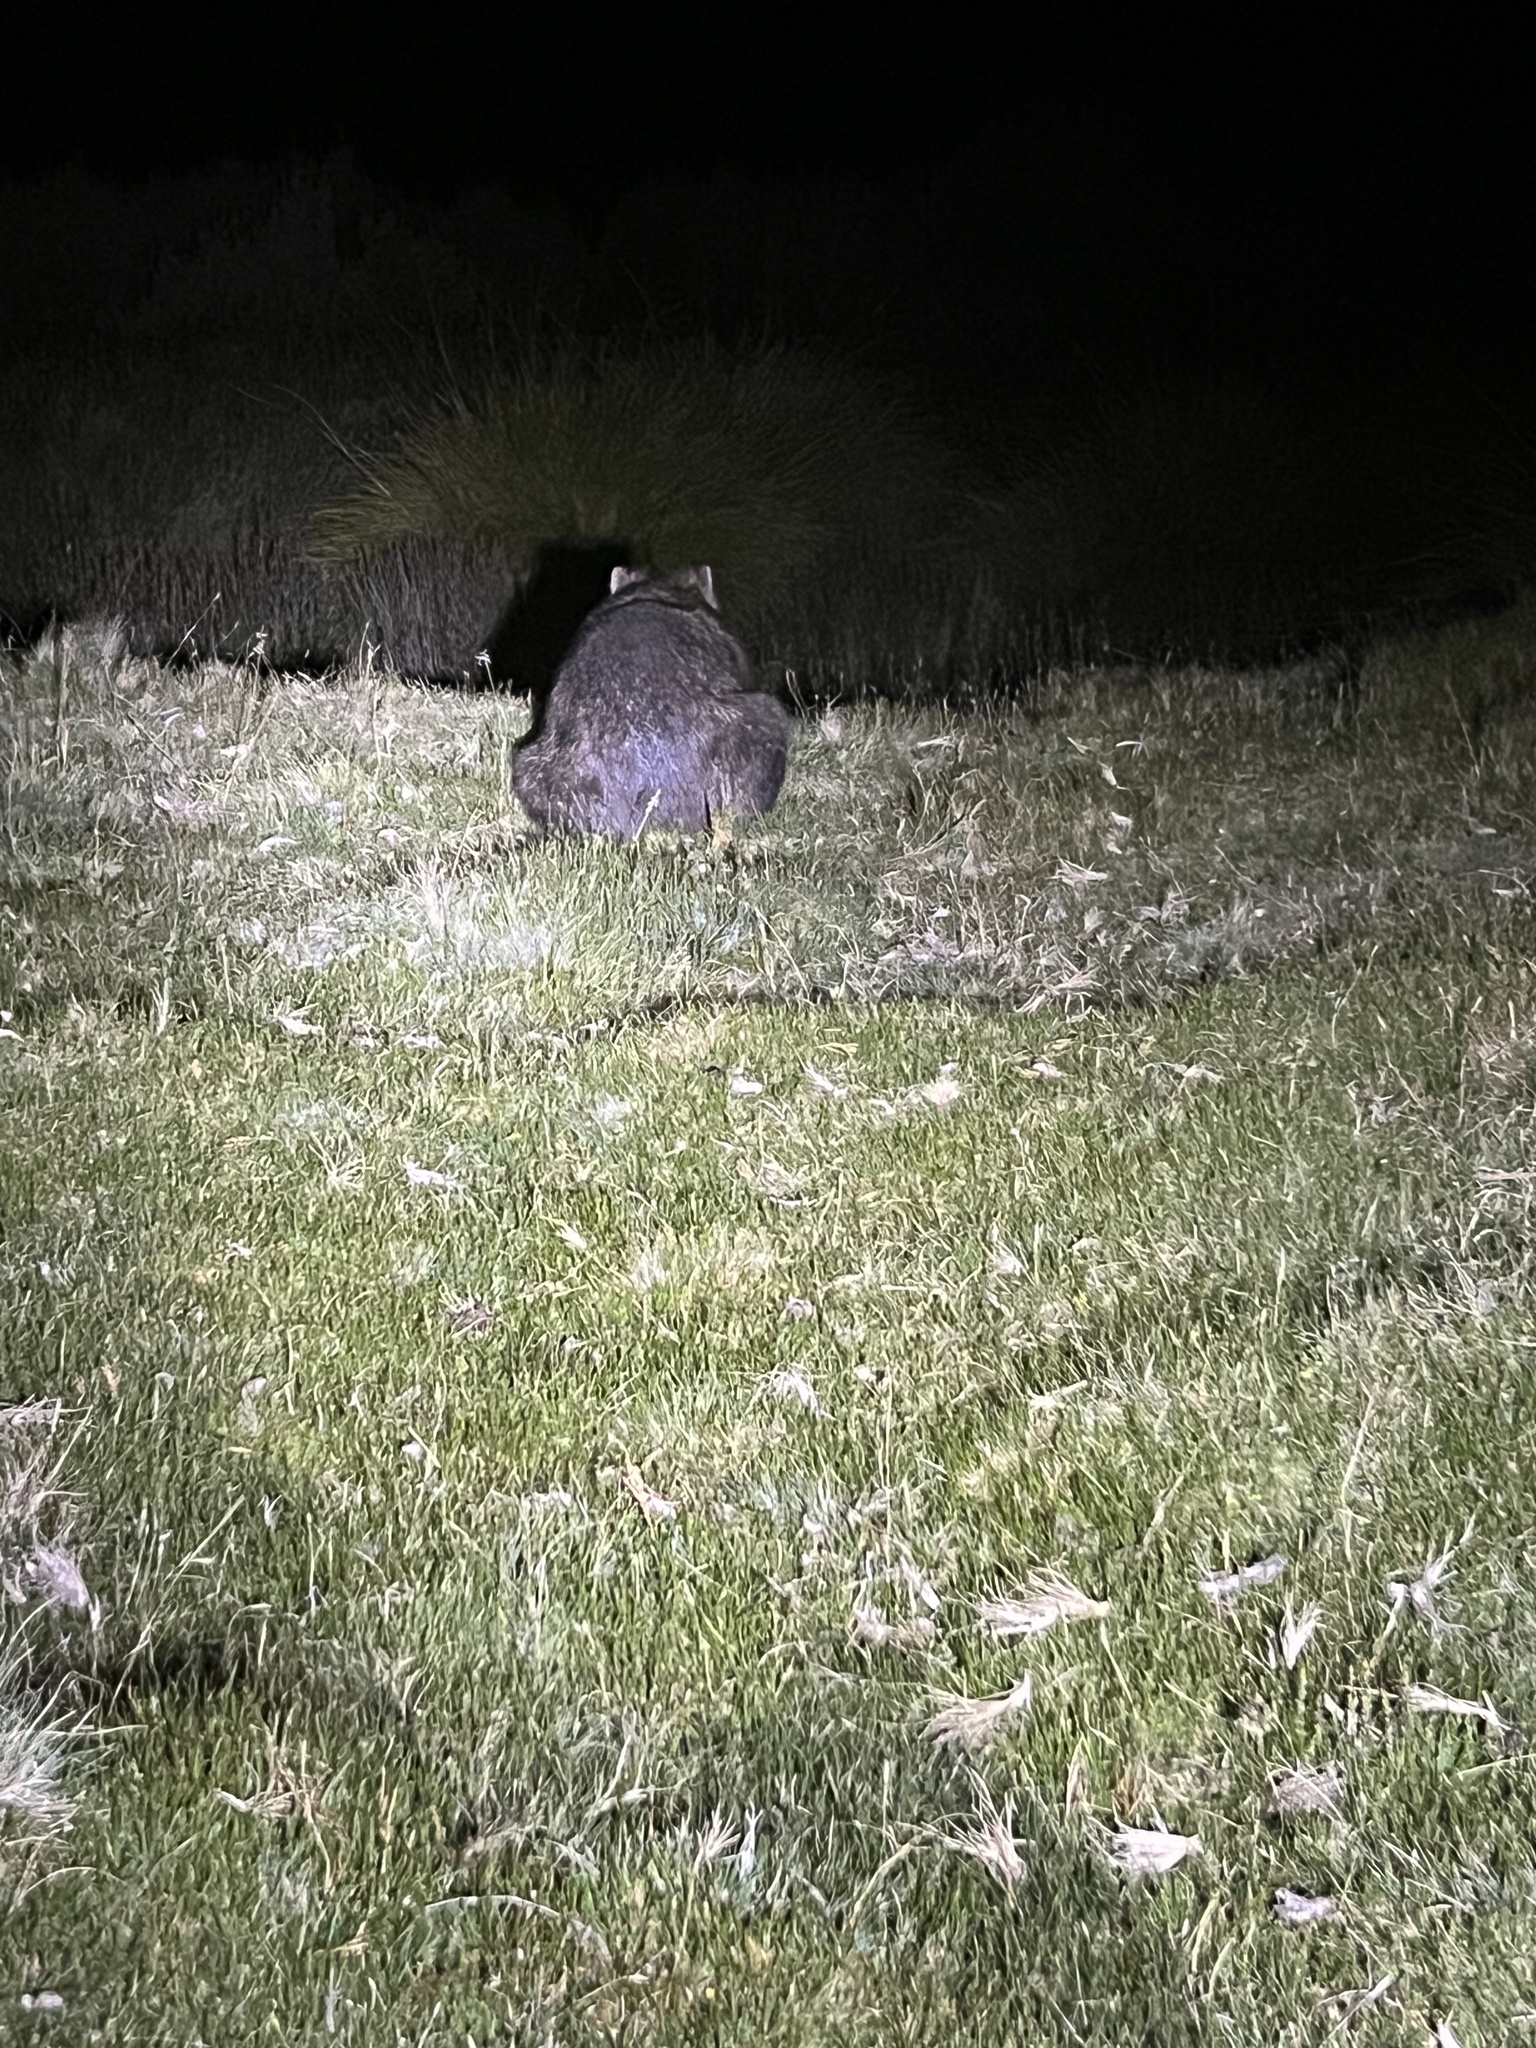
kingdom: Animalia
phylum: Chordata
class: Mammalia
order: Diprotodontia
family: Vombatidae
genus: Vombatus
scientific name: Vombatus ursinus
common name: Common wombat
